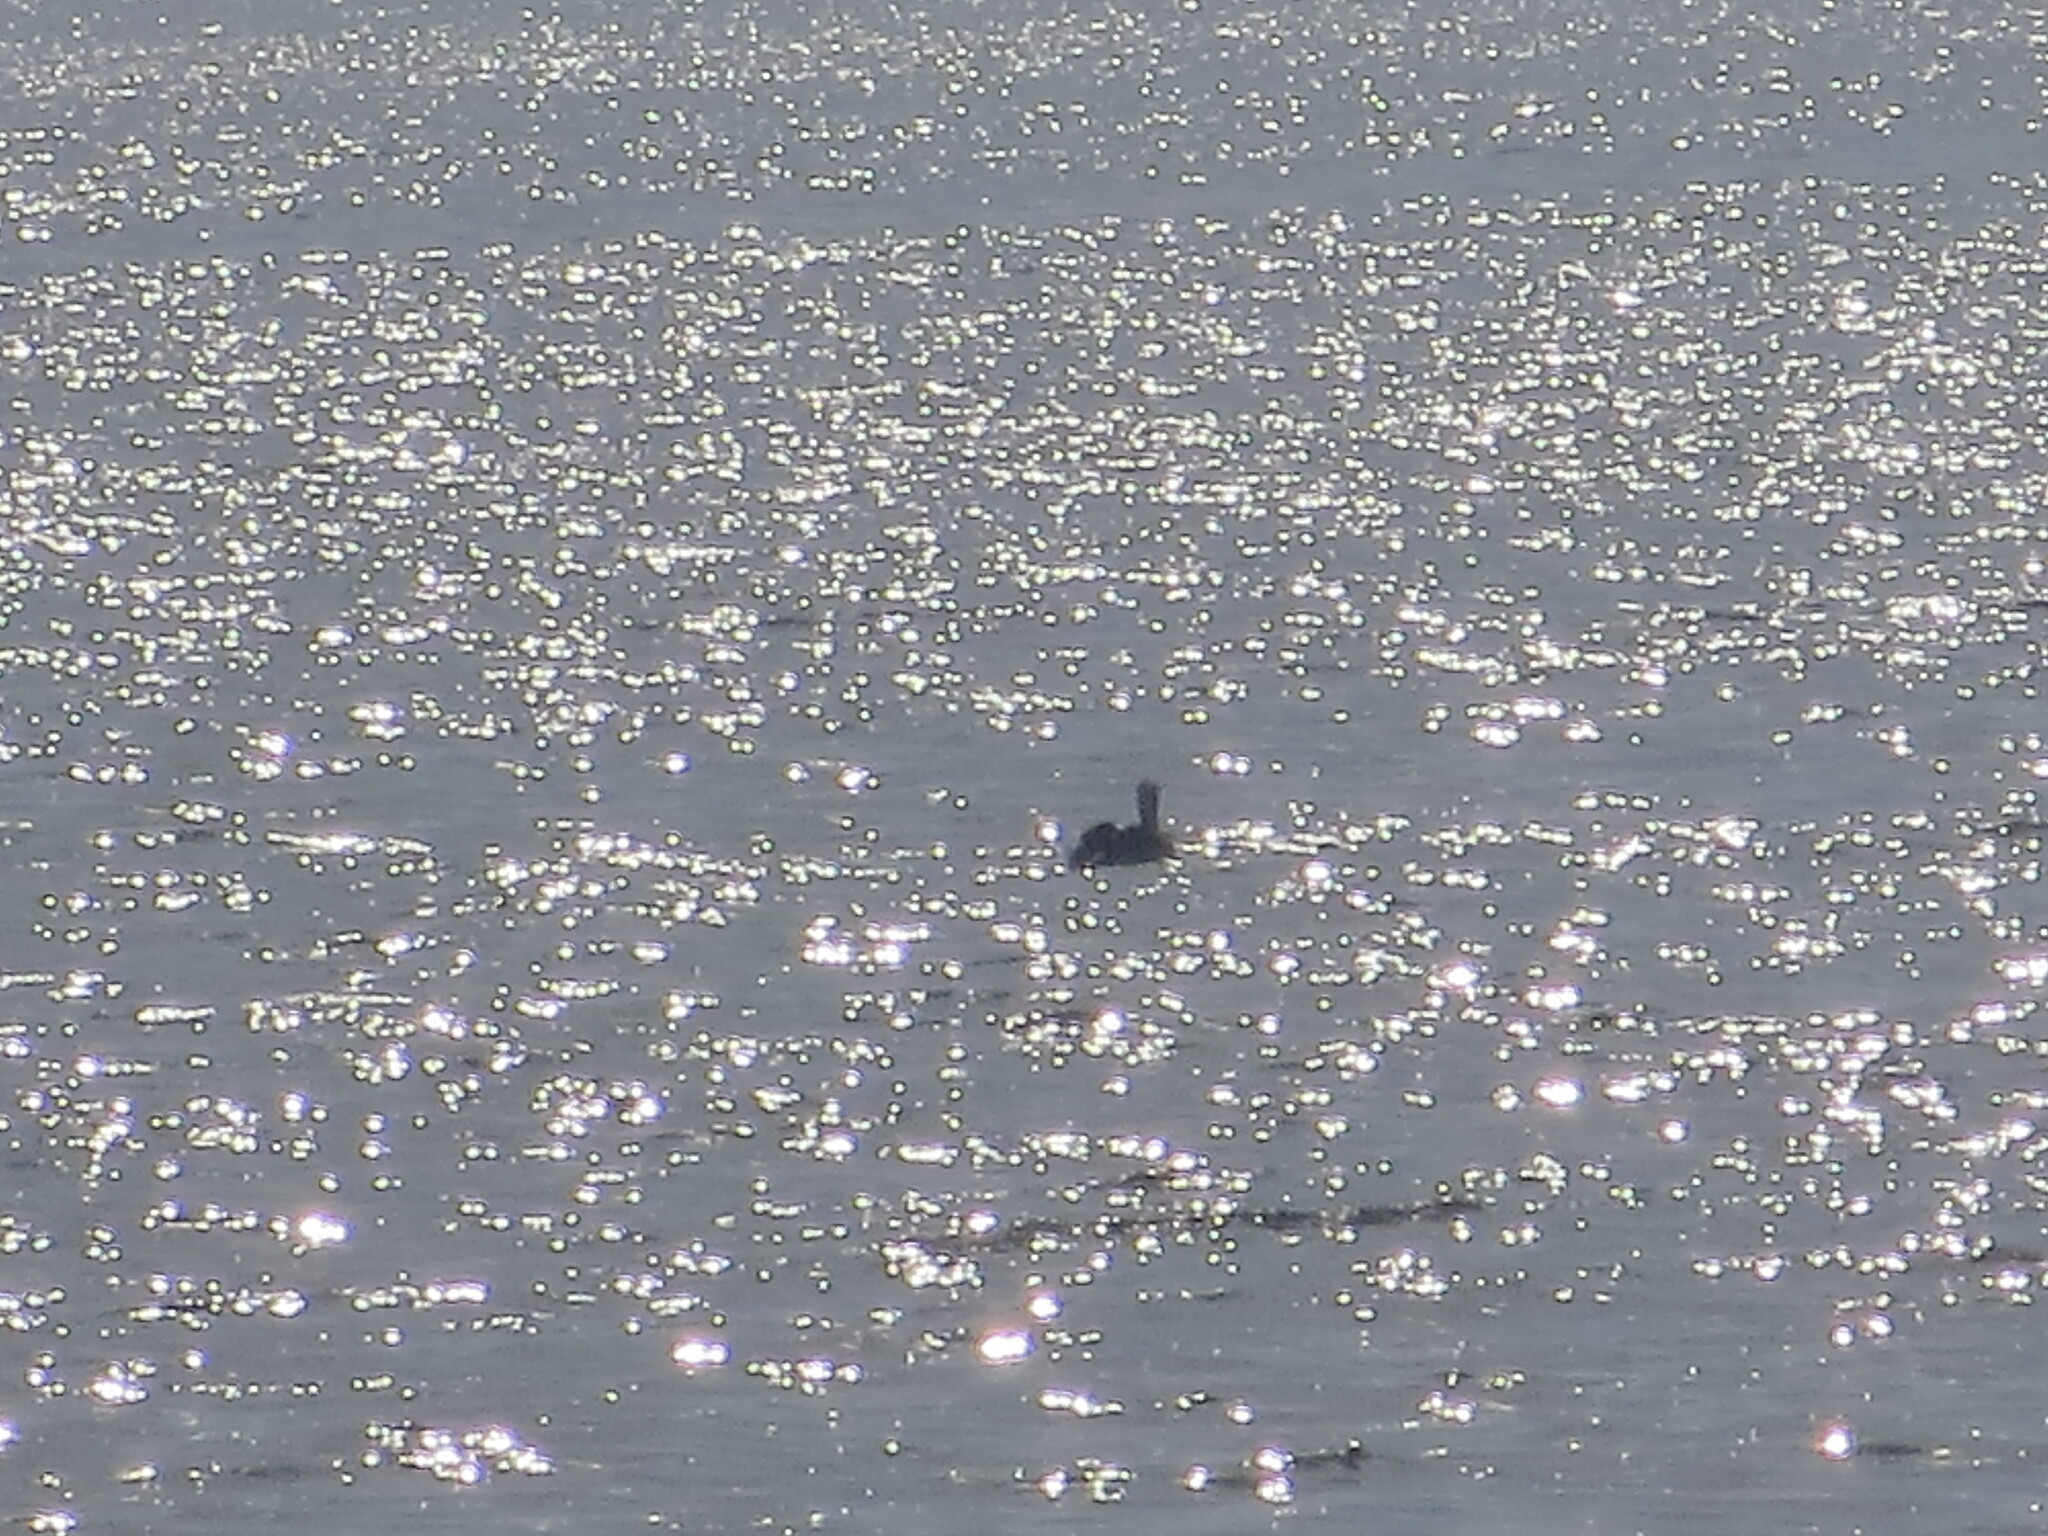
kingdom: Animalia
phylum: Chordata
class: Aves
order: Pelecaniformes
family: Pelecanidae
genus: Pelecanus
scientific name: Pelecanus occidentalis
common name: Brown pelican
